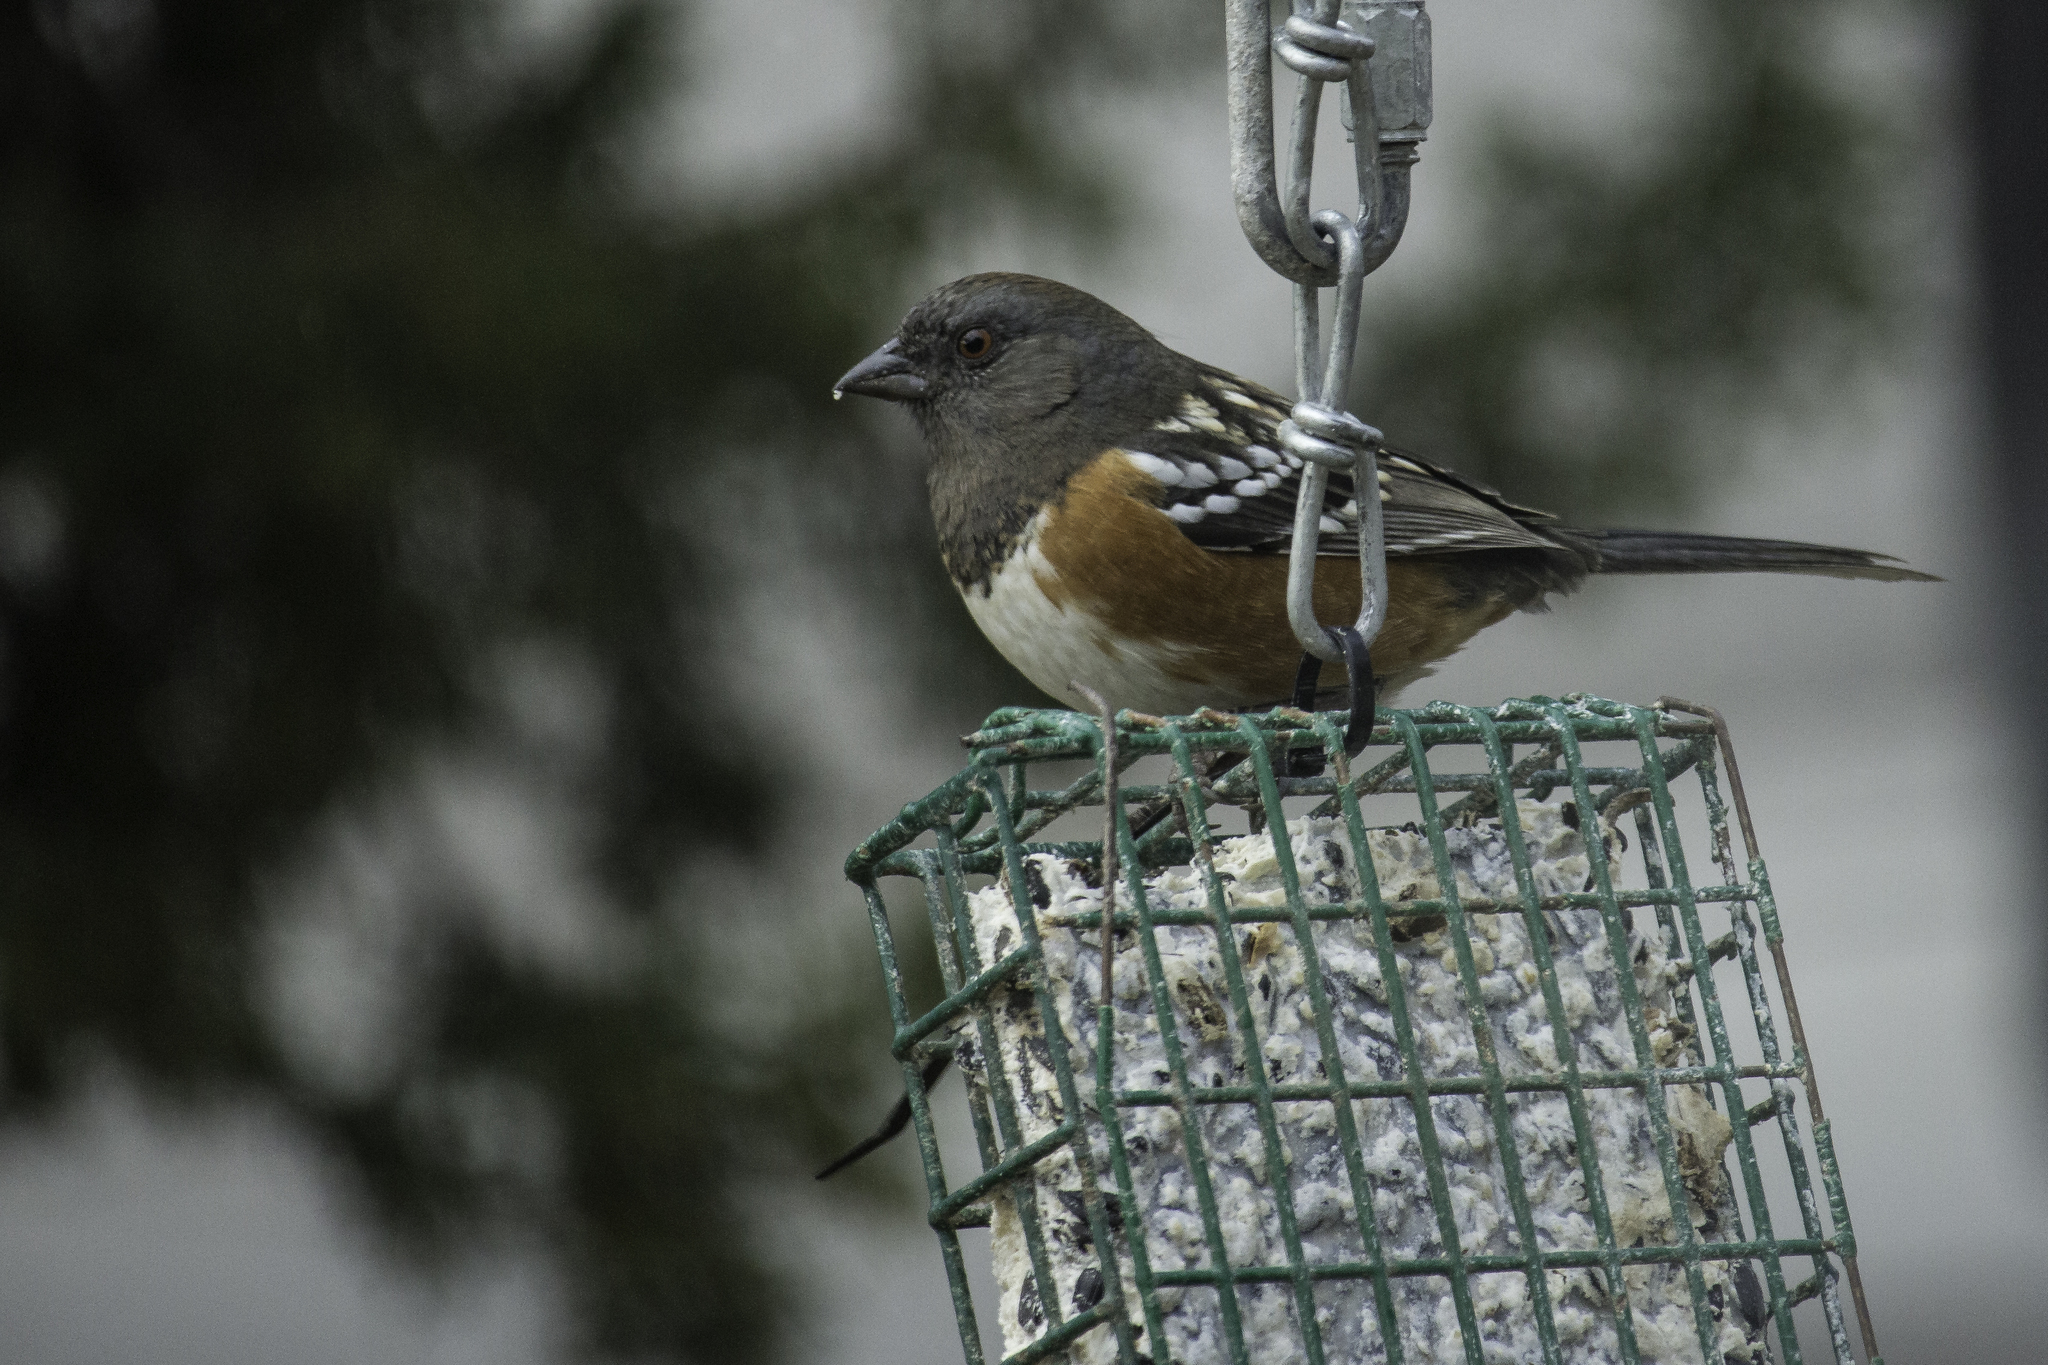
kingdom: Animalia
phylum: Chordata
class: Aves
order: Passeriformes
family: Passerellidae
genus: Pipilo
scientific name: Pipilo maculatus
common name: Spotted towhee
